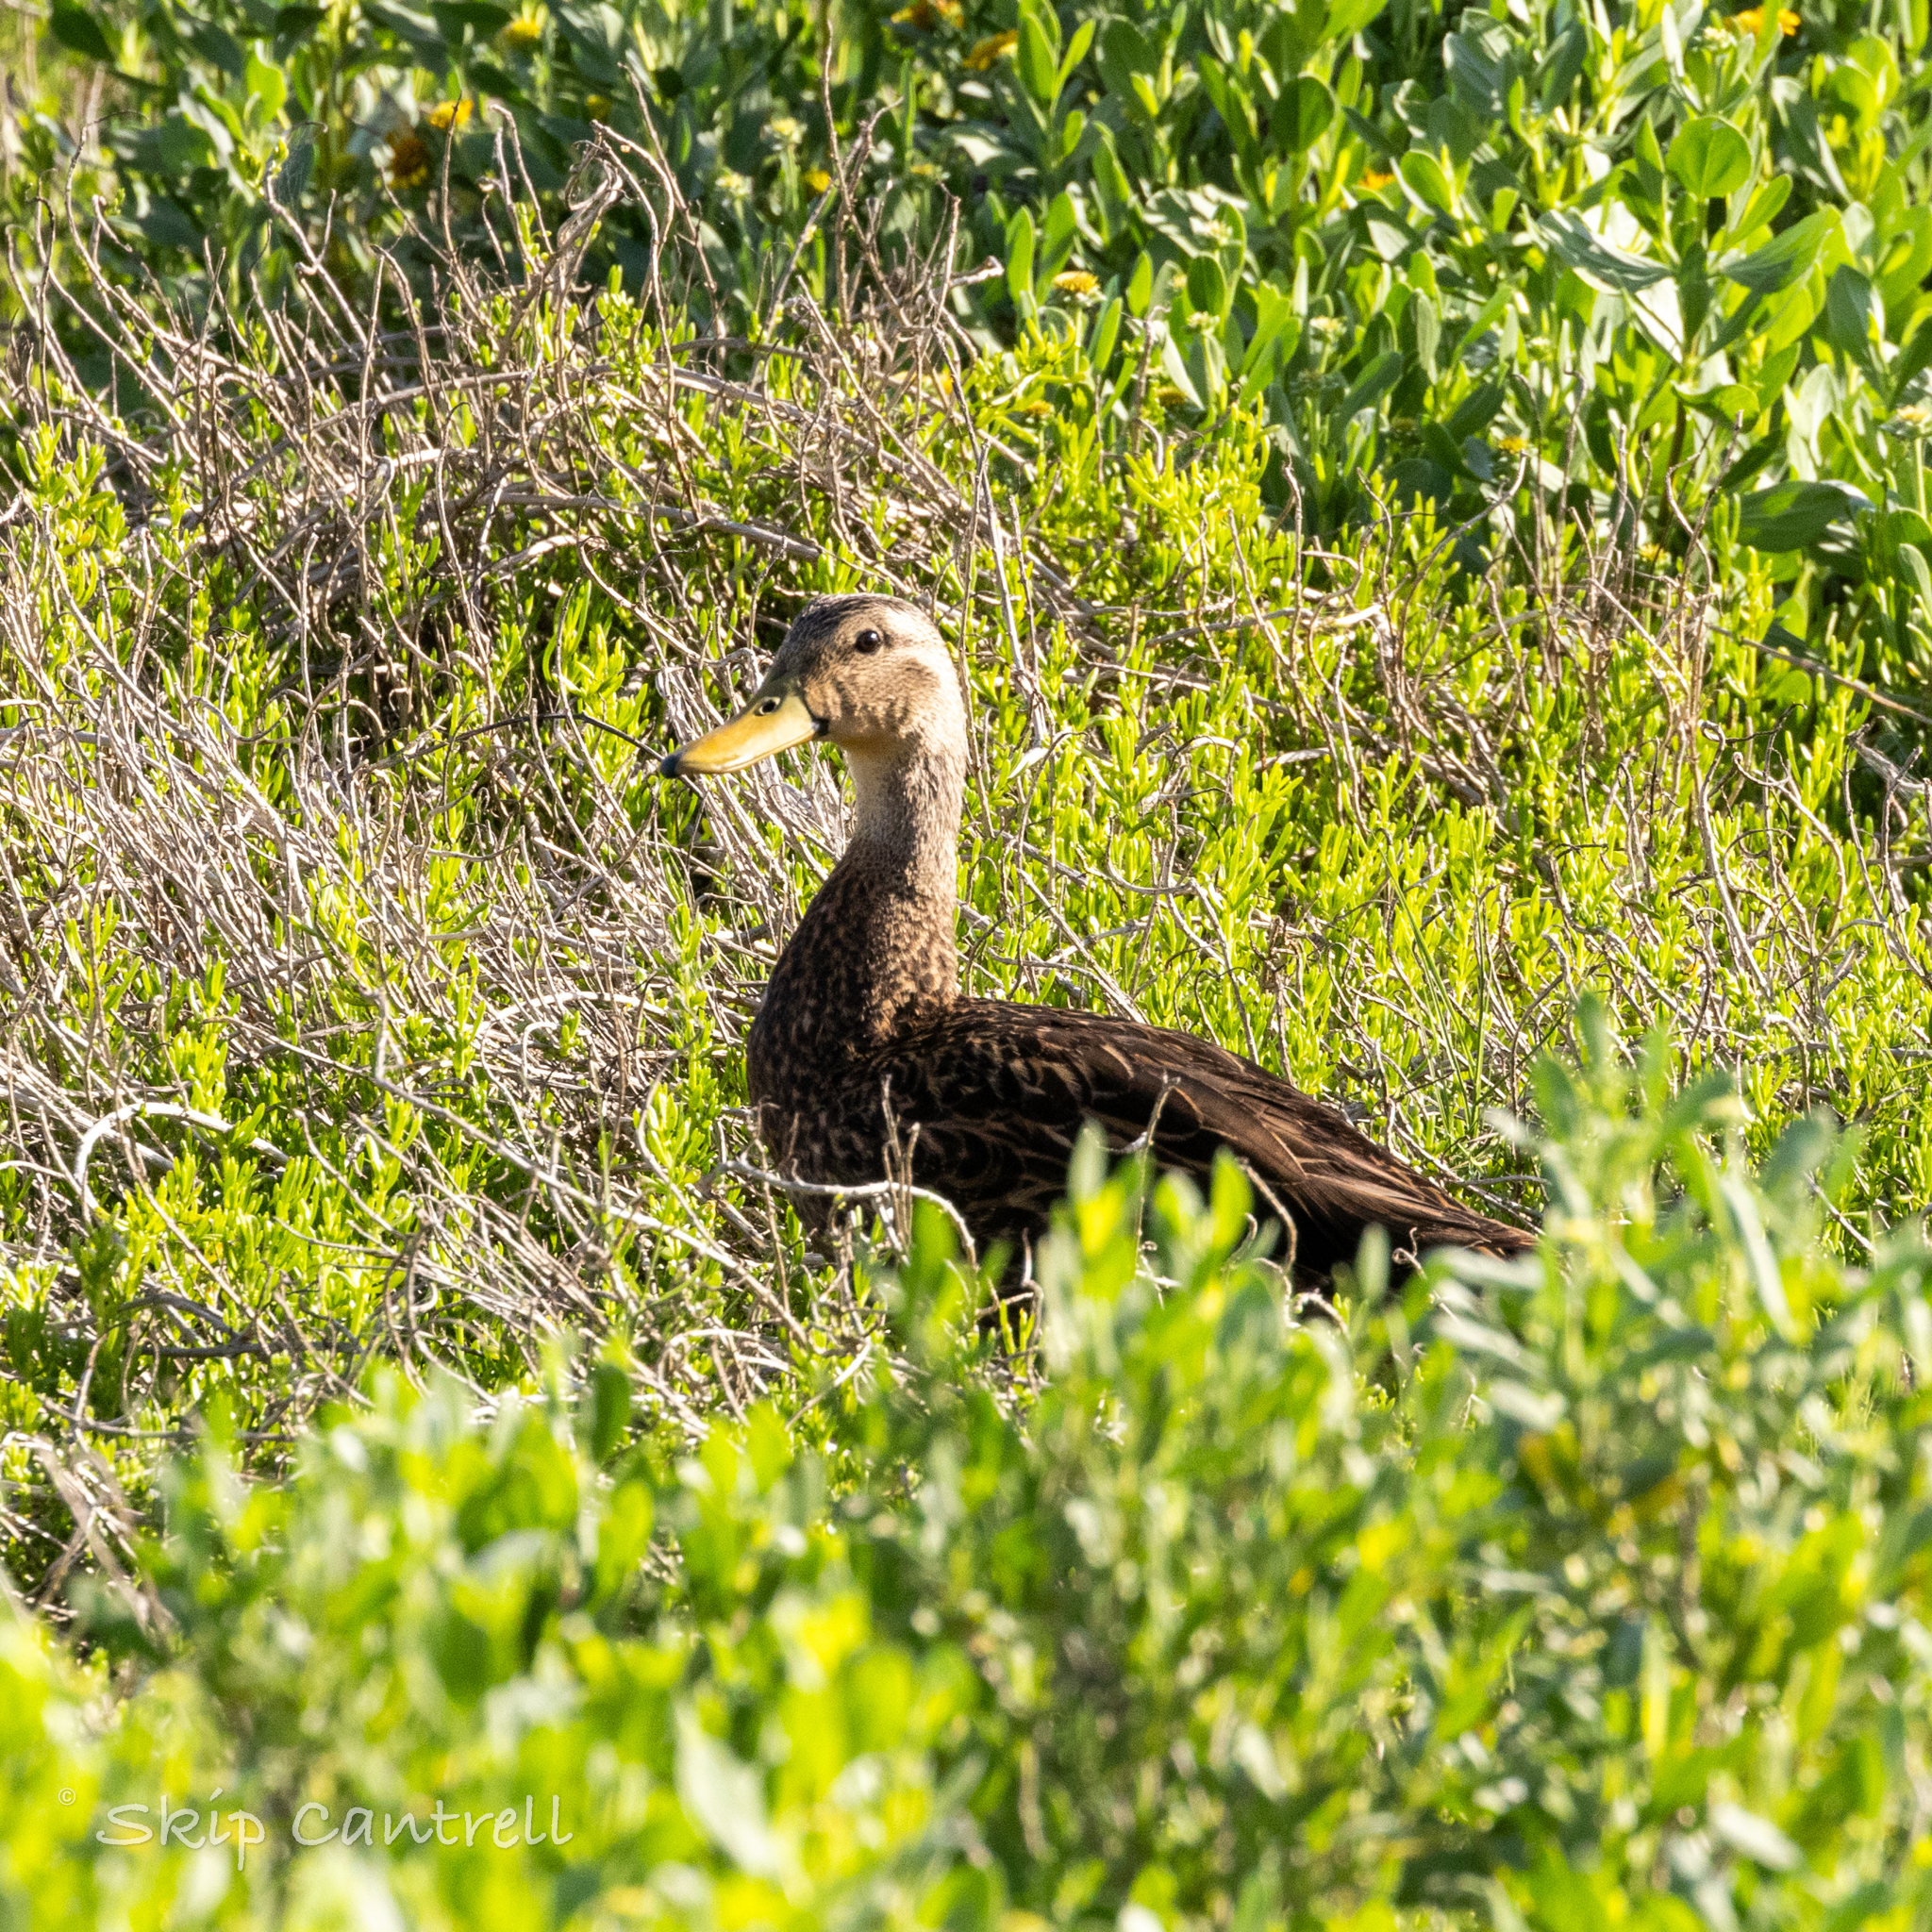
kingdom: Animalia
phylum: Chordata
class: Aves
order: Anseriformes
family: Anatidae
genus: Anas
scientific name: Anas fulvigula
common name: Mottled duck
